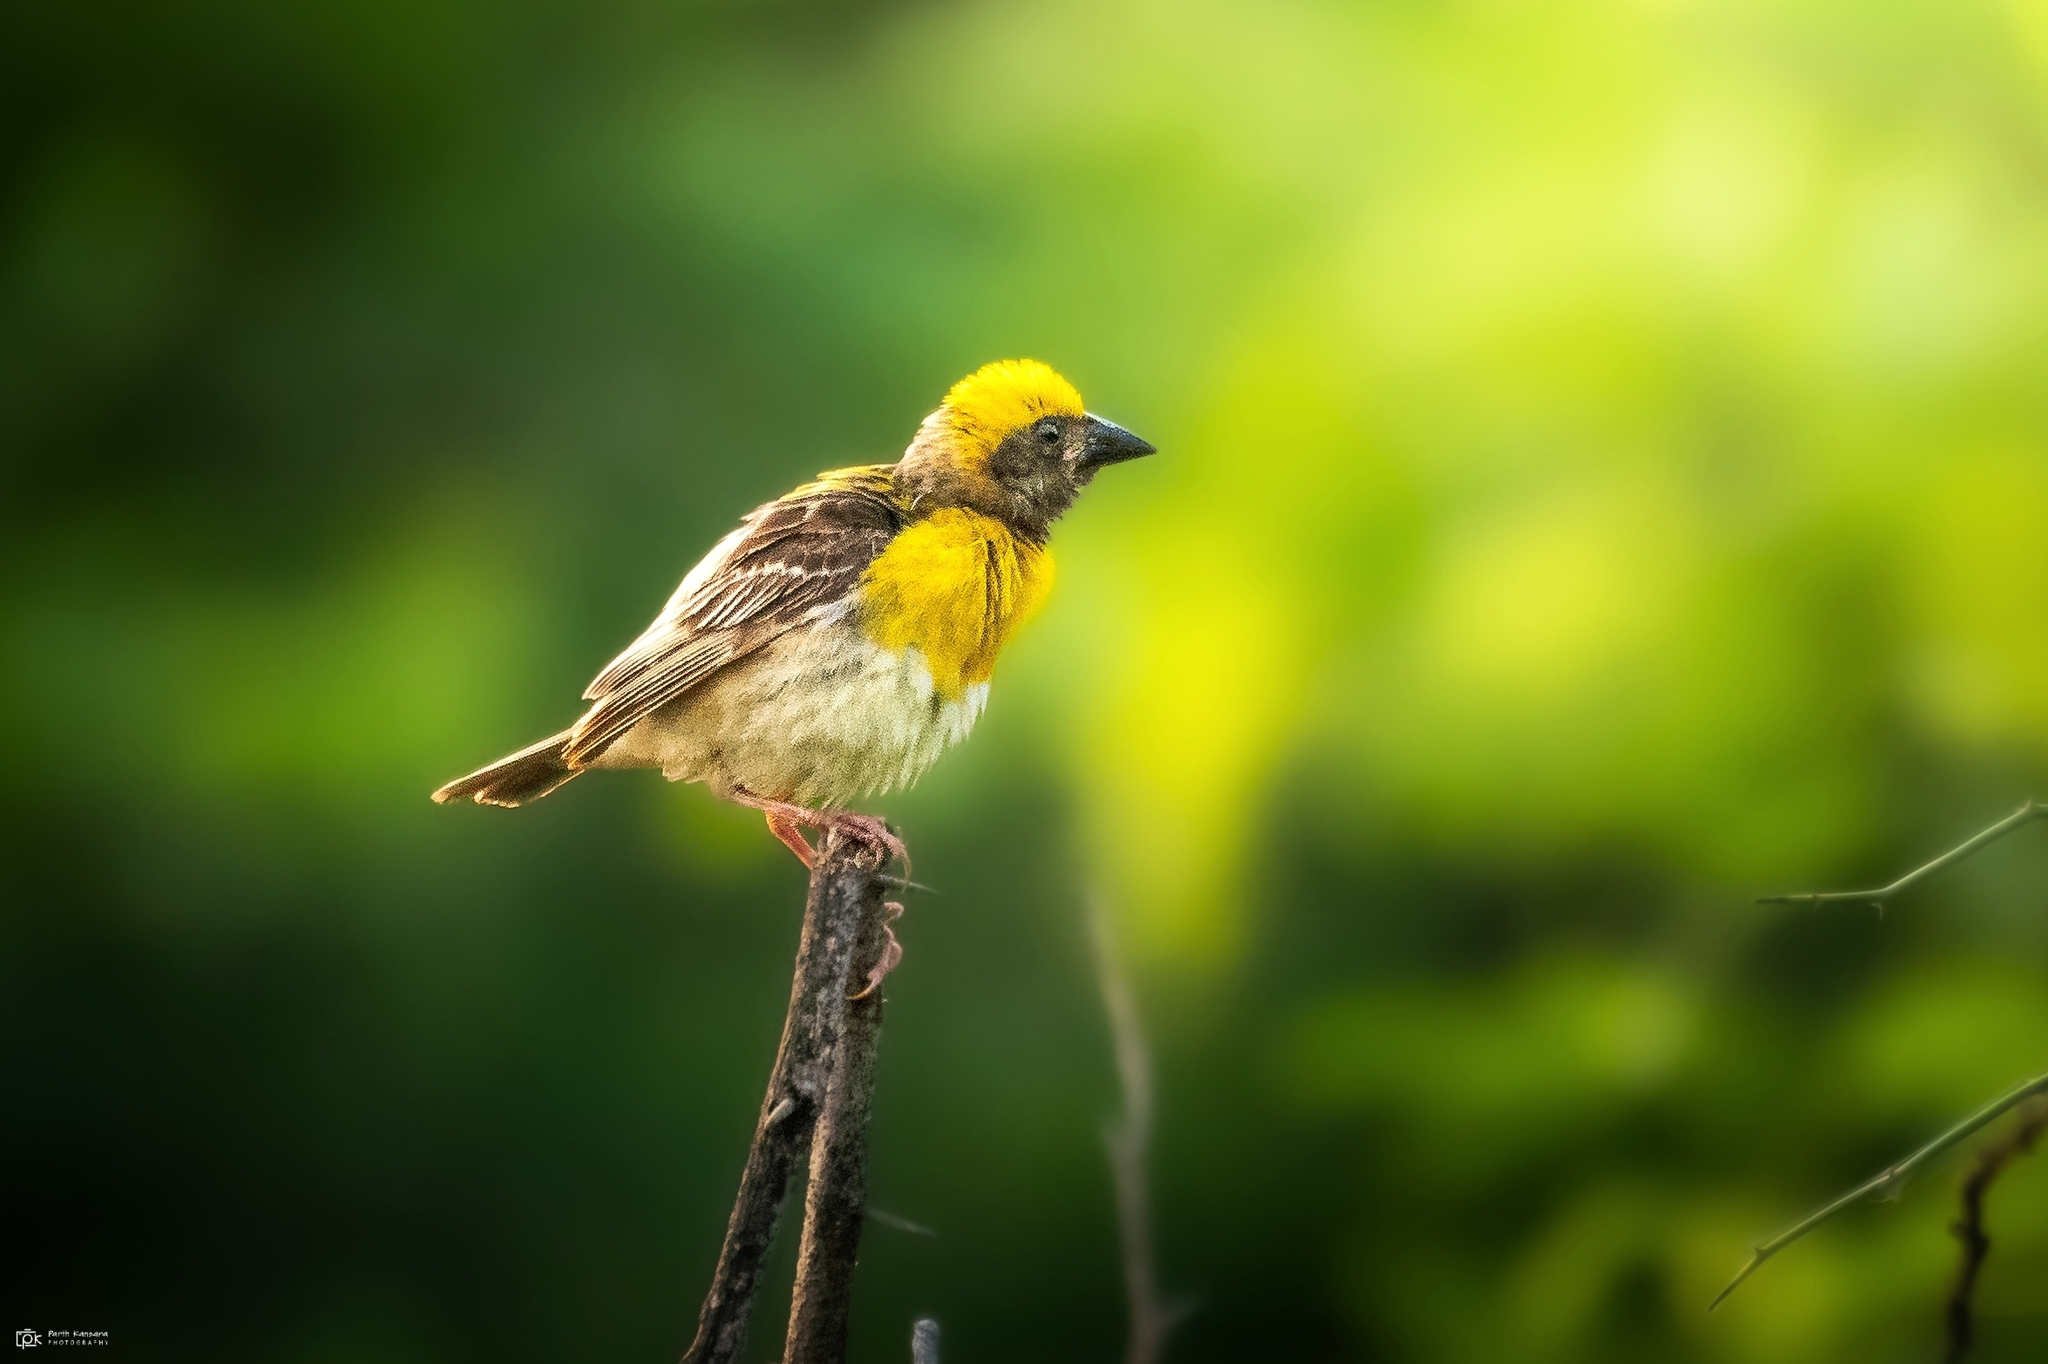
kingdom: Animalia
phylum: Chordata
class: Aves
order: Passeriformes
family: Ploceidae
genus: Ploceus
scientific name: Ploceus philippinus
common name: Baya weaver
